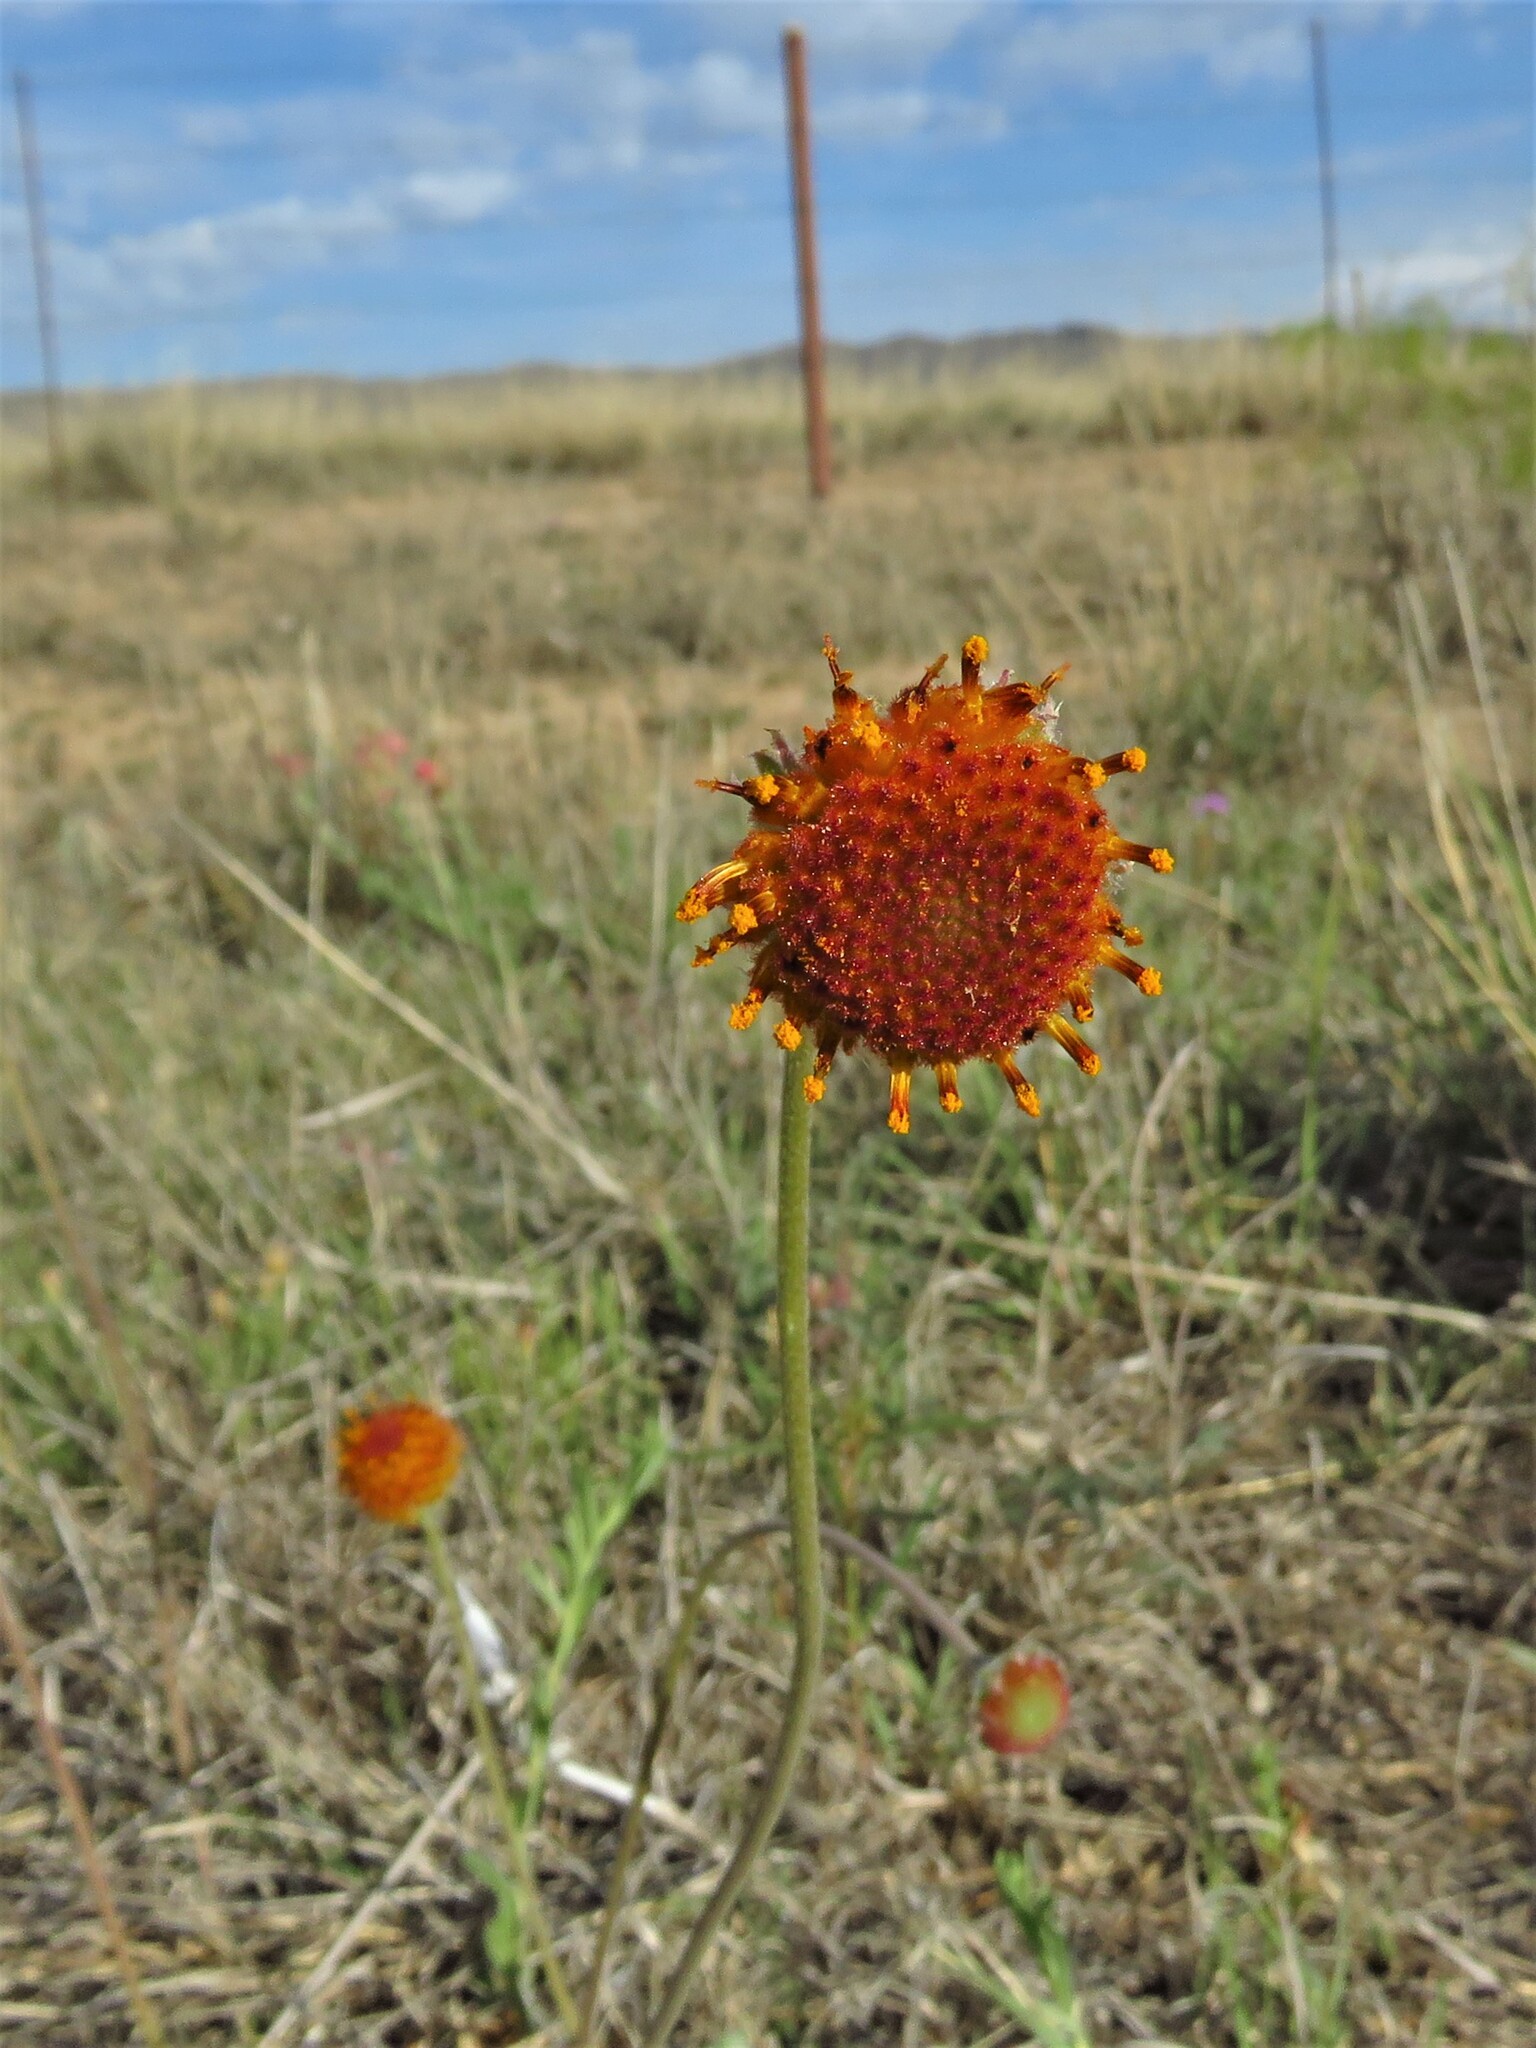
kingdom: Plantae
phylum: Tracheophyta
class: Magnoliopsida
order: Asterales
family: Asteraceae
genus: Gaillardia
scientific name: Gaillardia suavis
